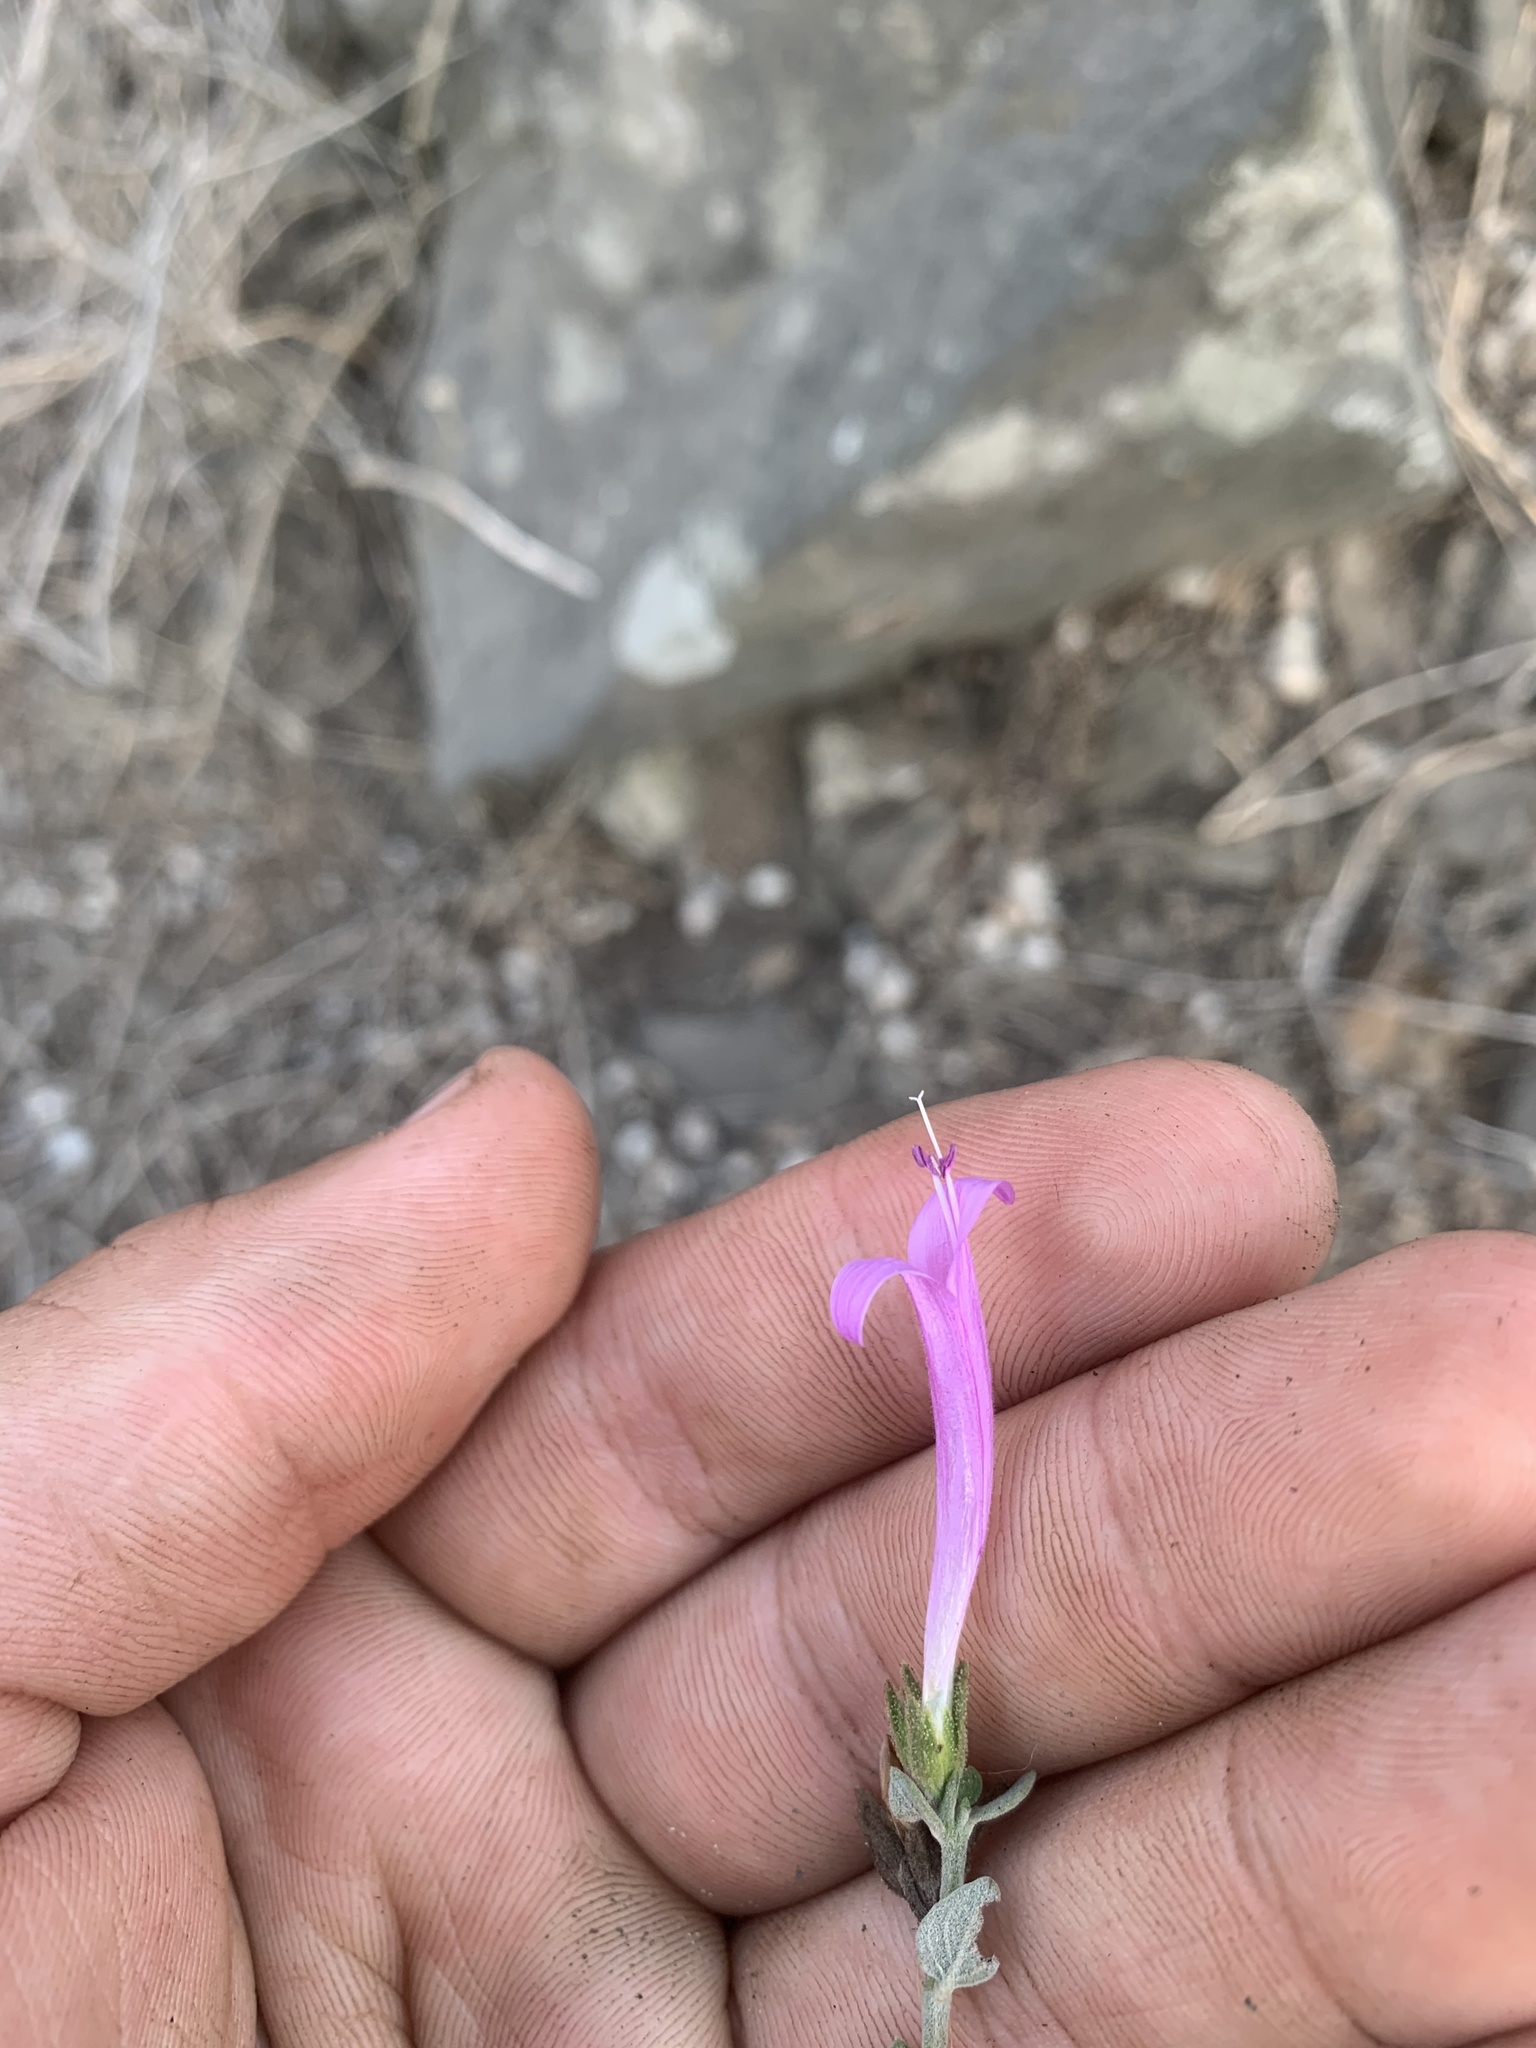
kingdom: Plantae
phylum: Tracheophyta
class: Magnoliopsida
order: Lamiales
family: Acanthaceae
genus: Dicliptera
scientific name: Dicliptera tomentosa
